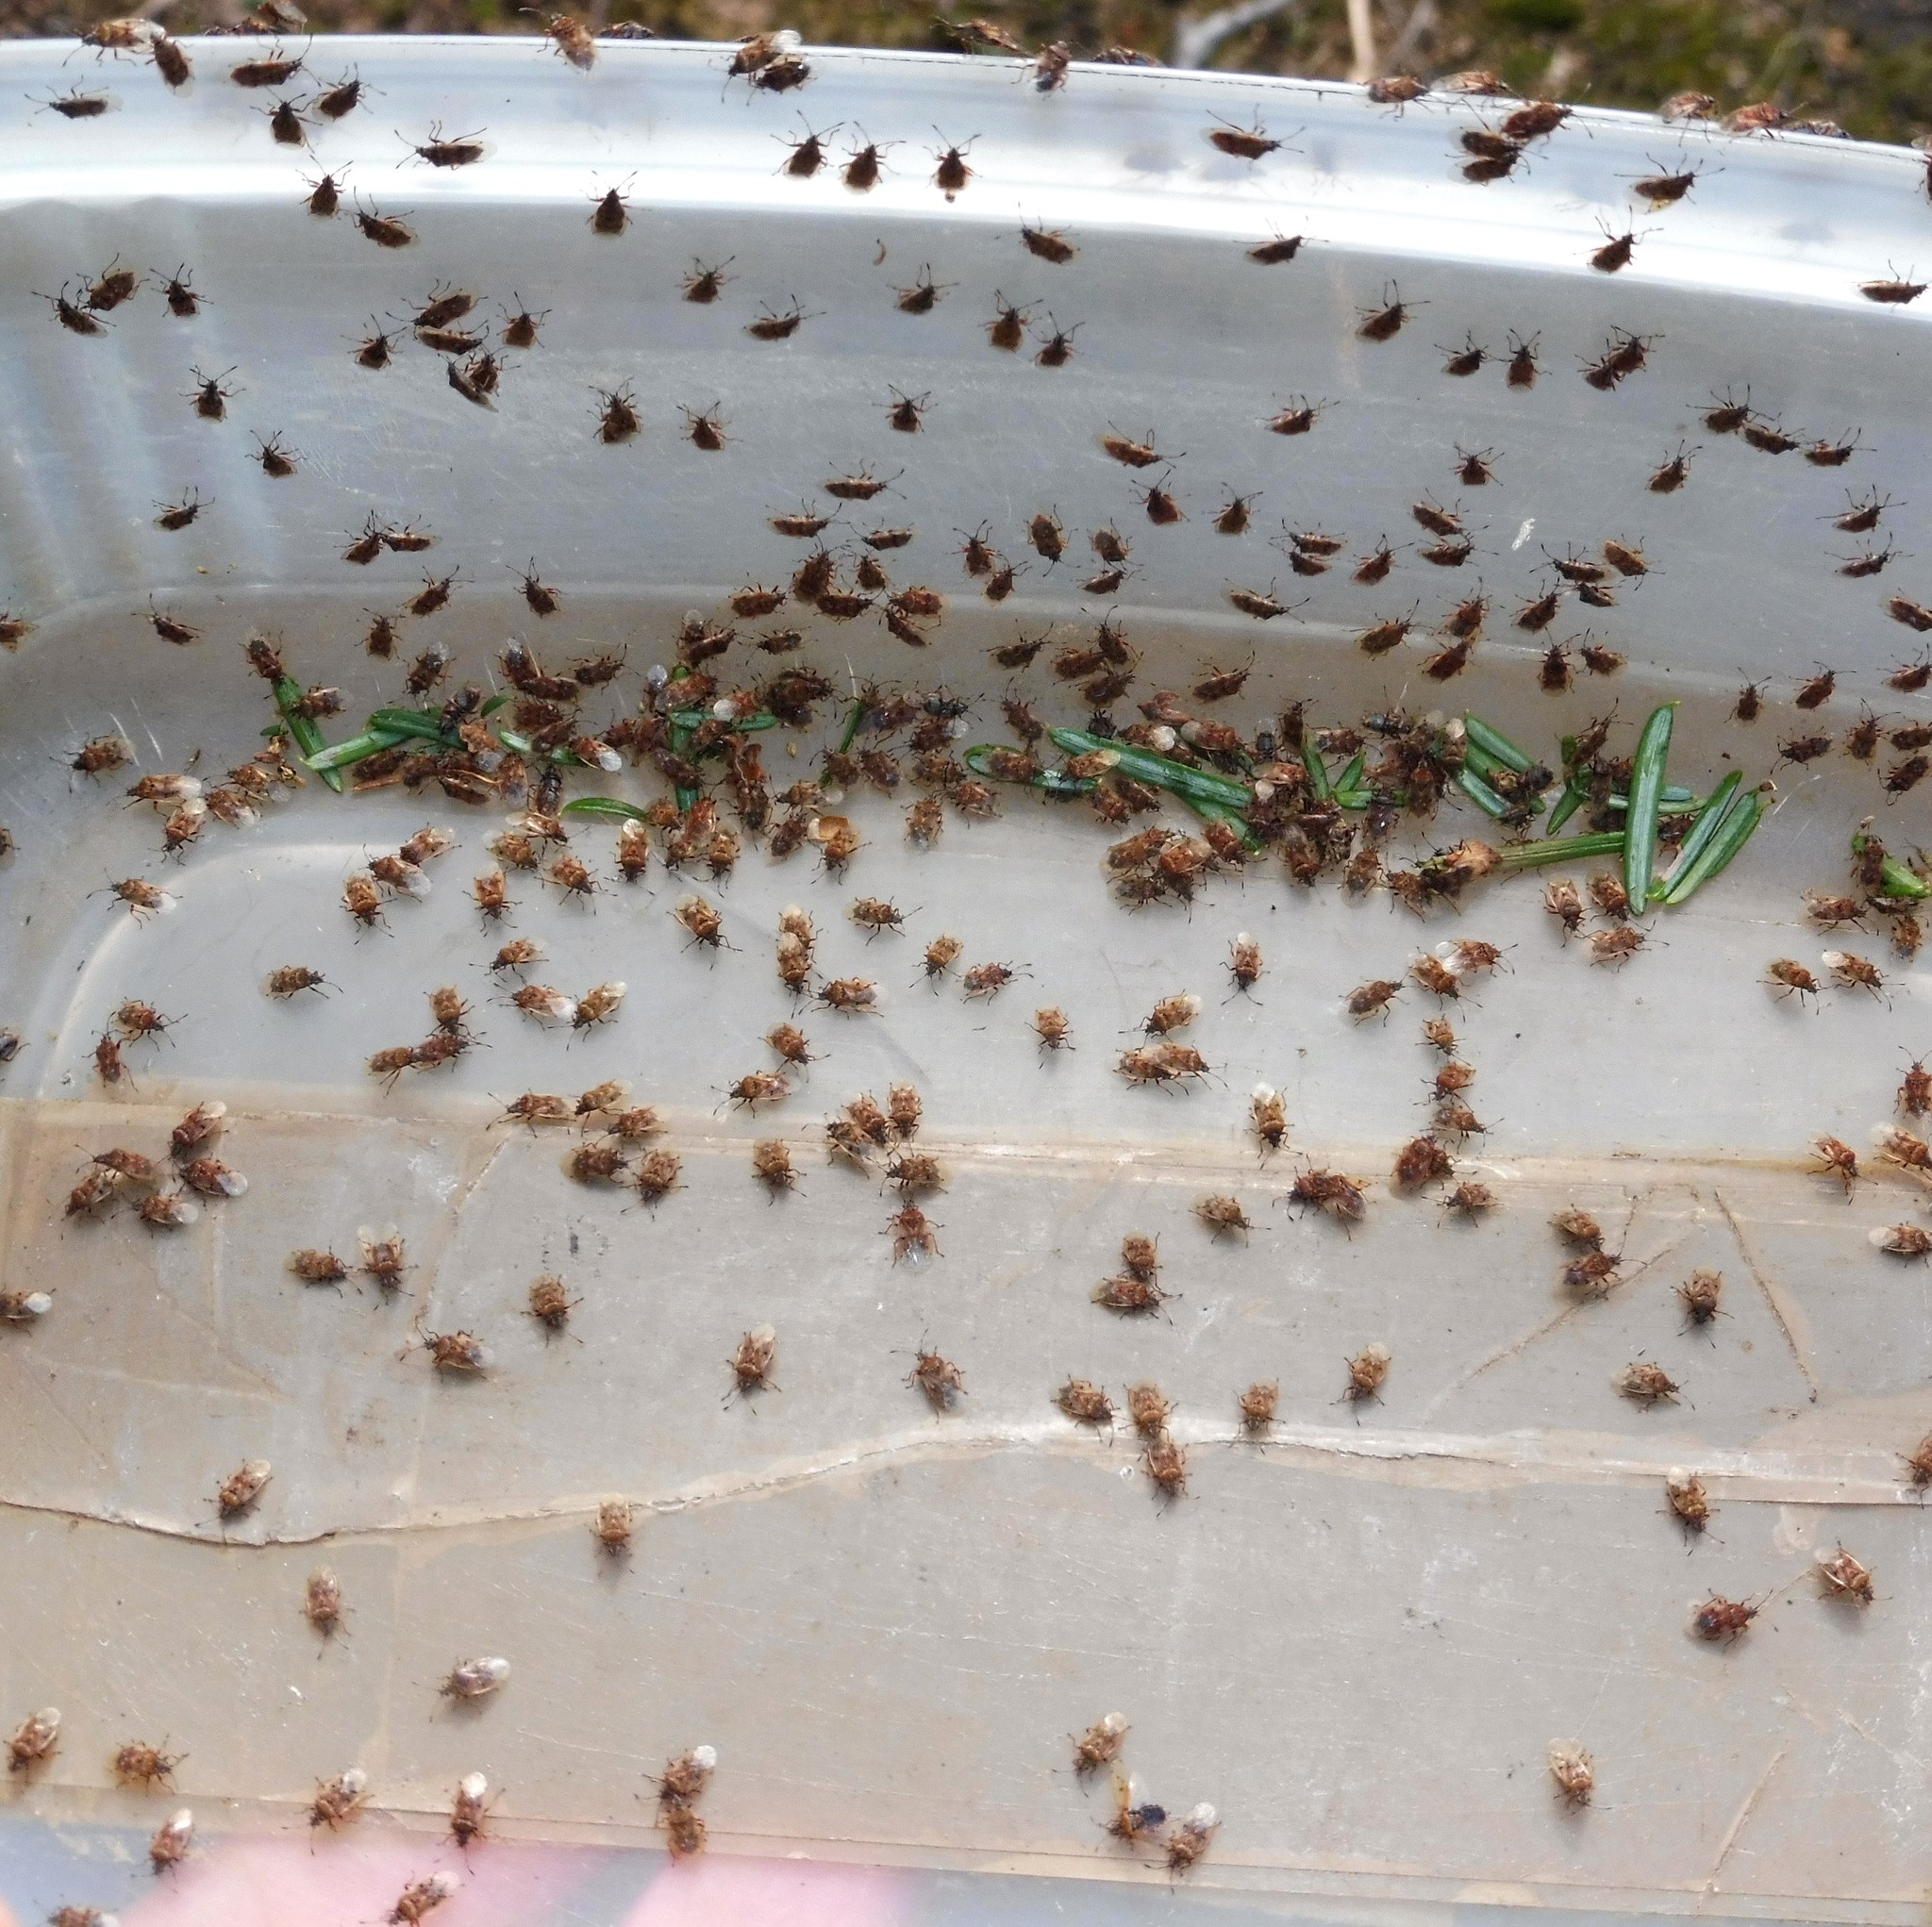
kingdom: Animalia
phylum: Arthropoda
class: Insecta
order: Hemiptera
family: Lygaeidae
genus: Kleidocerys
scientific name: Kleidocerys resedae
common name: Birch catkin bug
